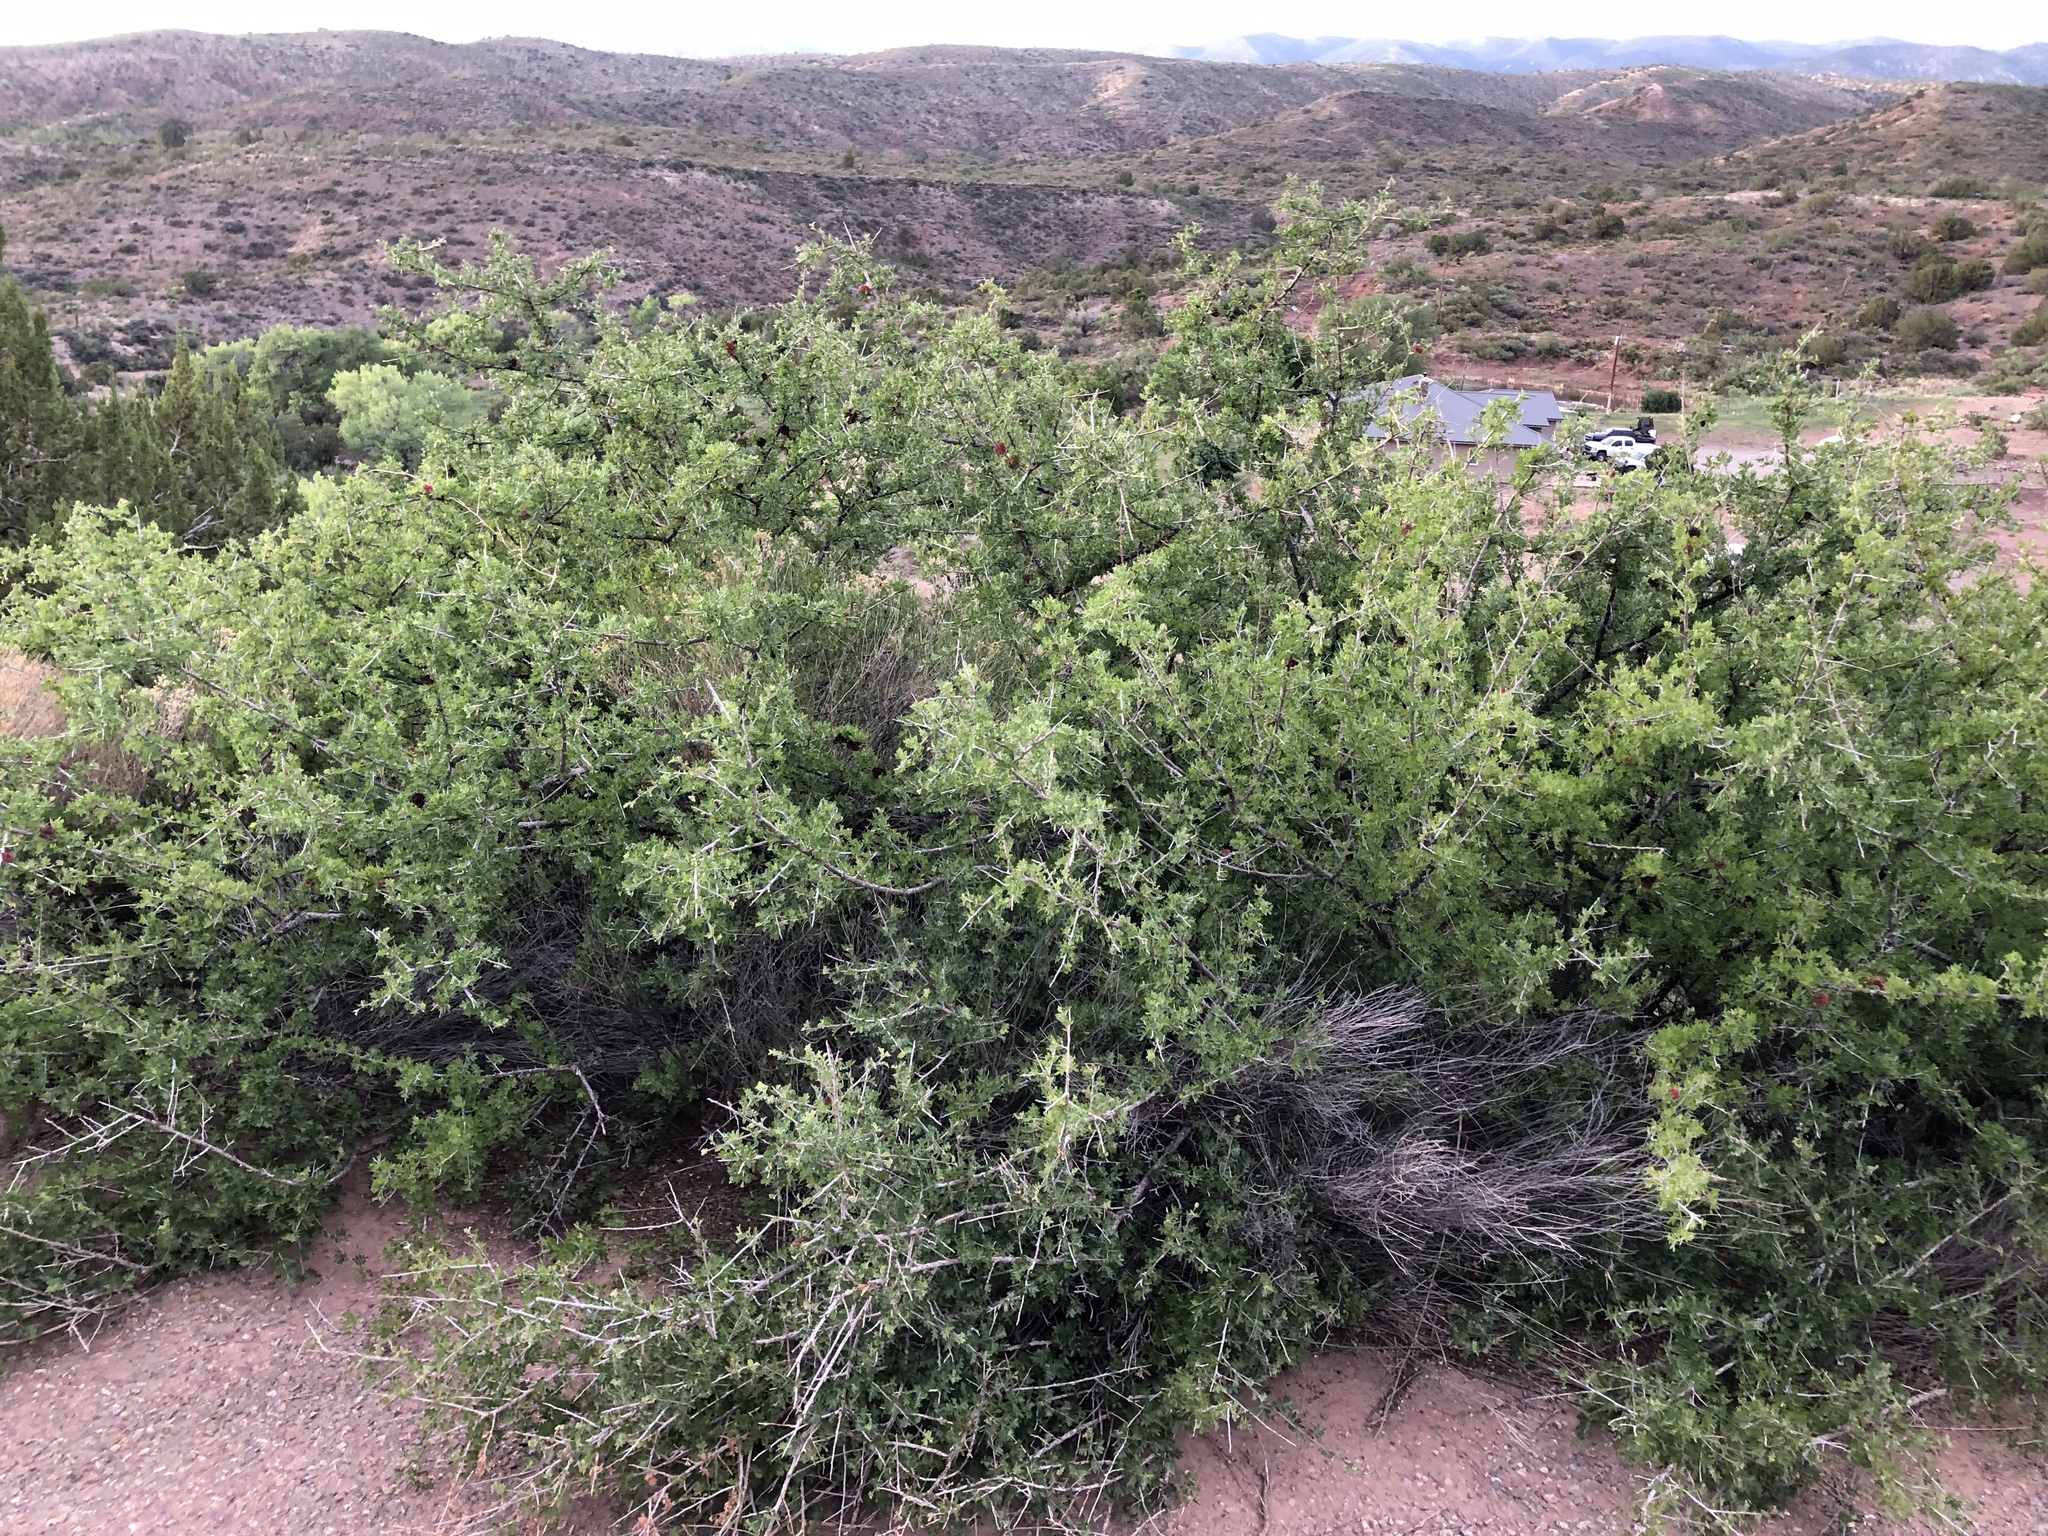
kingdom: Plantae
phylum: Tracheophyta
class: Magnoliopsida
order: Sapindales
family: Anacardiaceae
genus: Rhus
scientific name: Rhus microphylla
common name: Desert sumac
